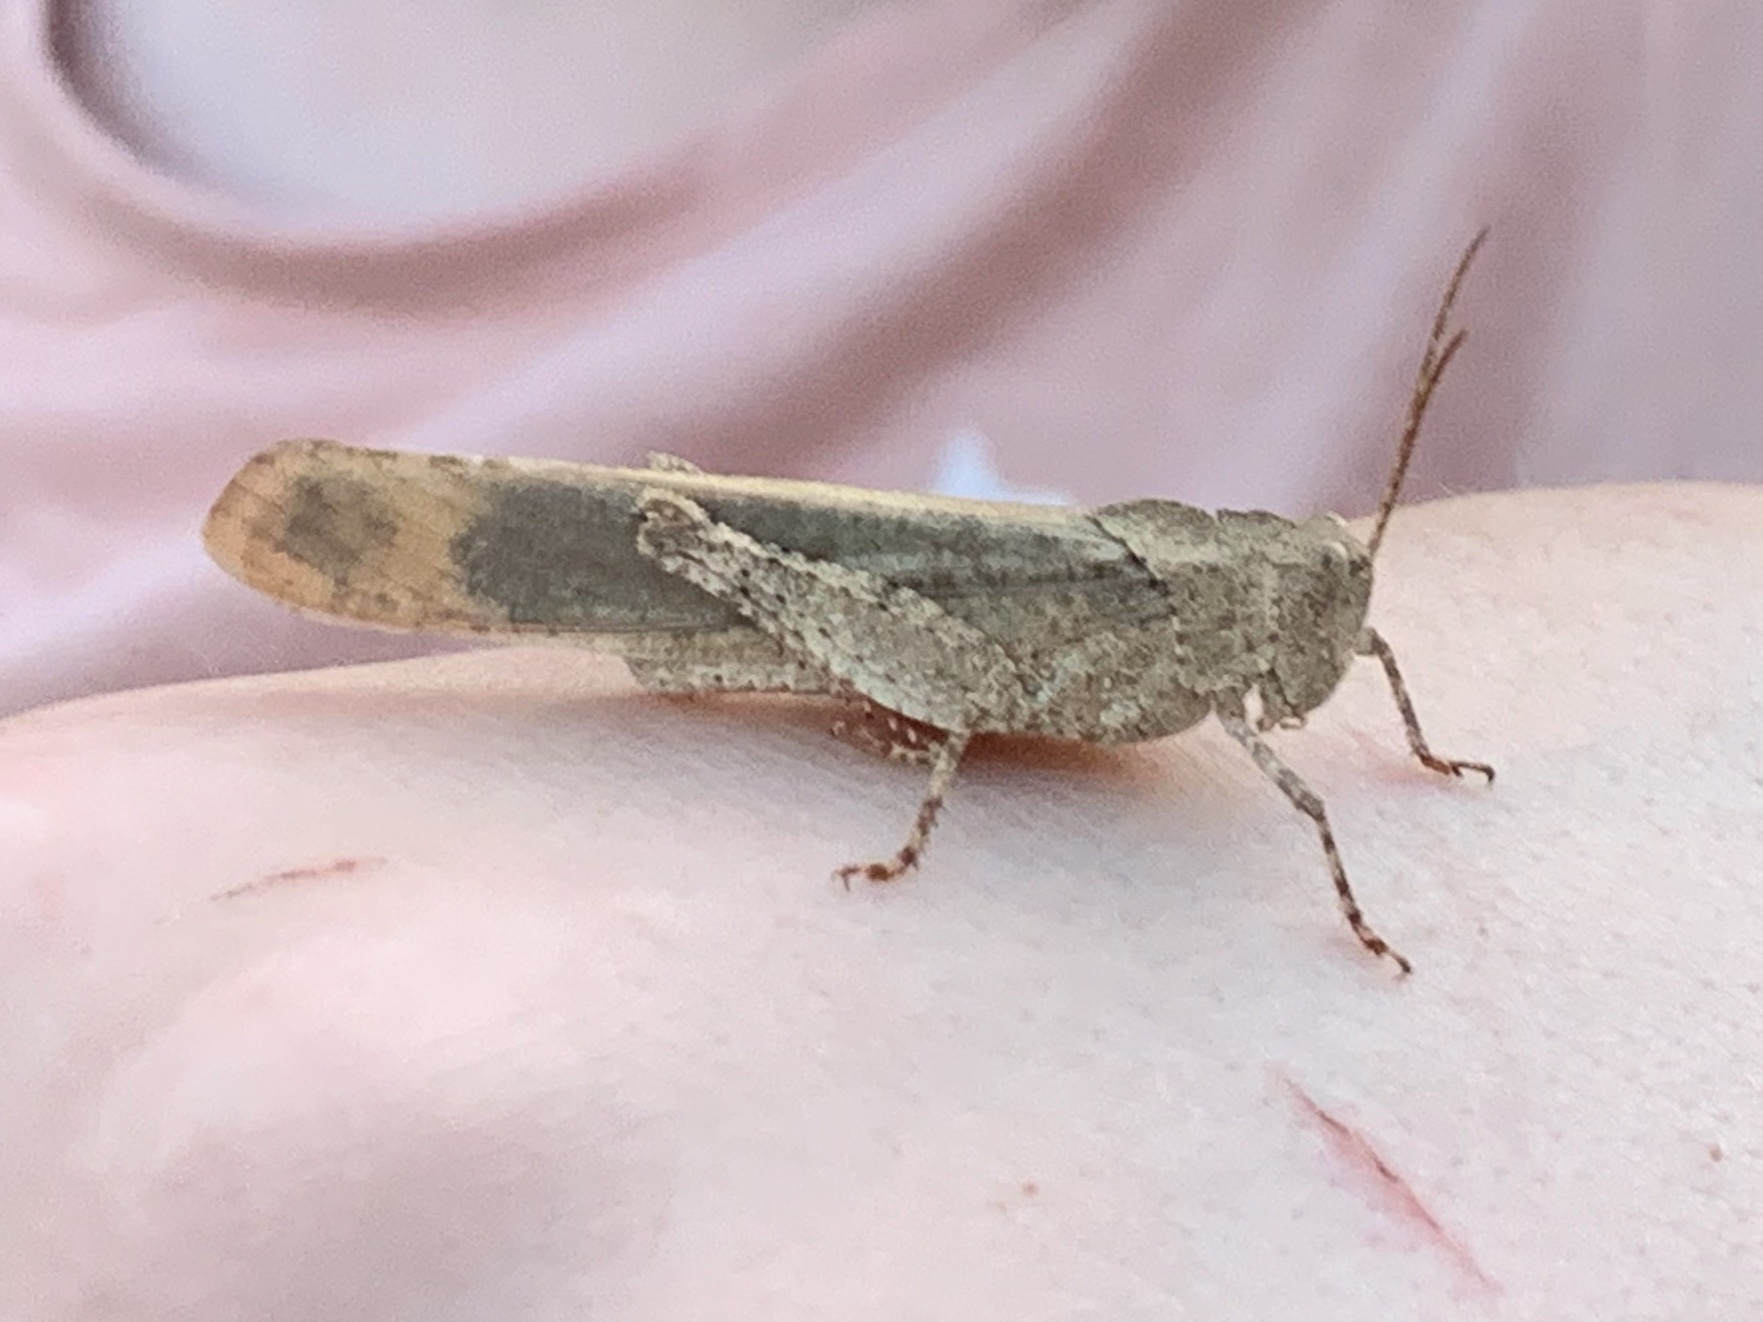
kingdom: Animalia
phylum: Arthropoda
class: Insecta
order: Orthoptera
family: Acrididae
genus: Dissosteira
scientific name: Dissosteira carolina
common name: Carolina grasshopper
